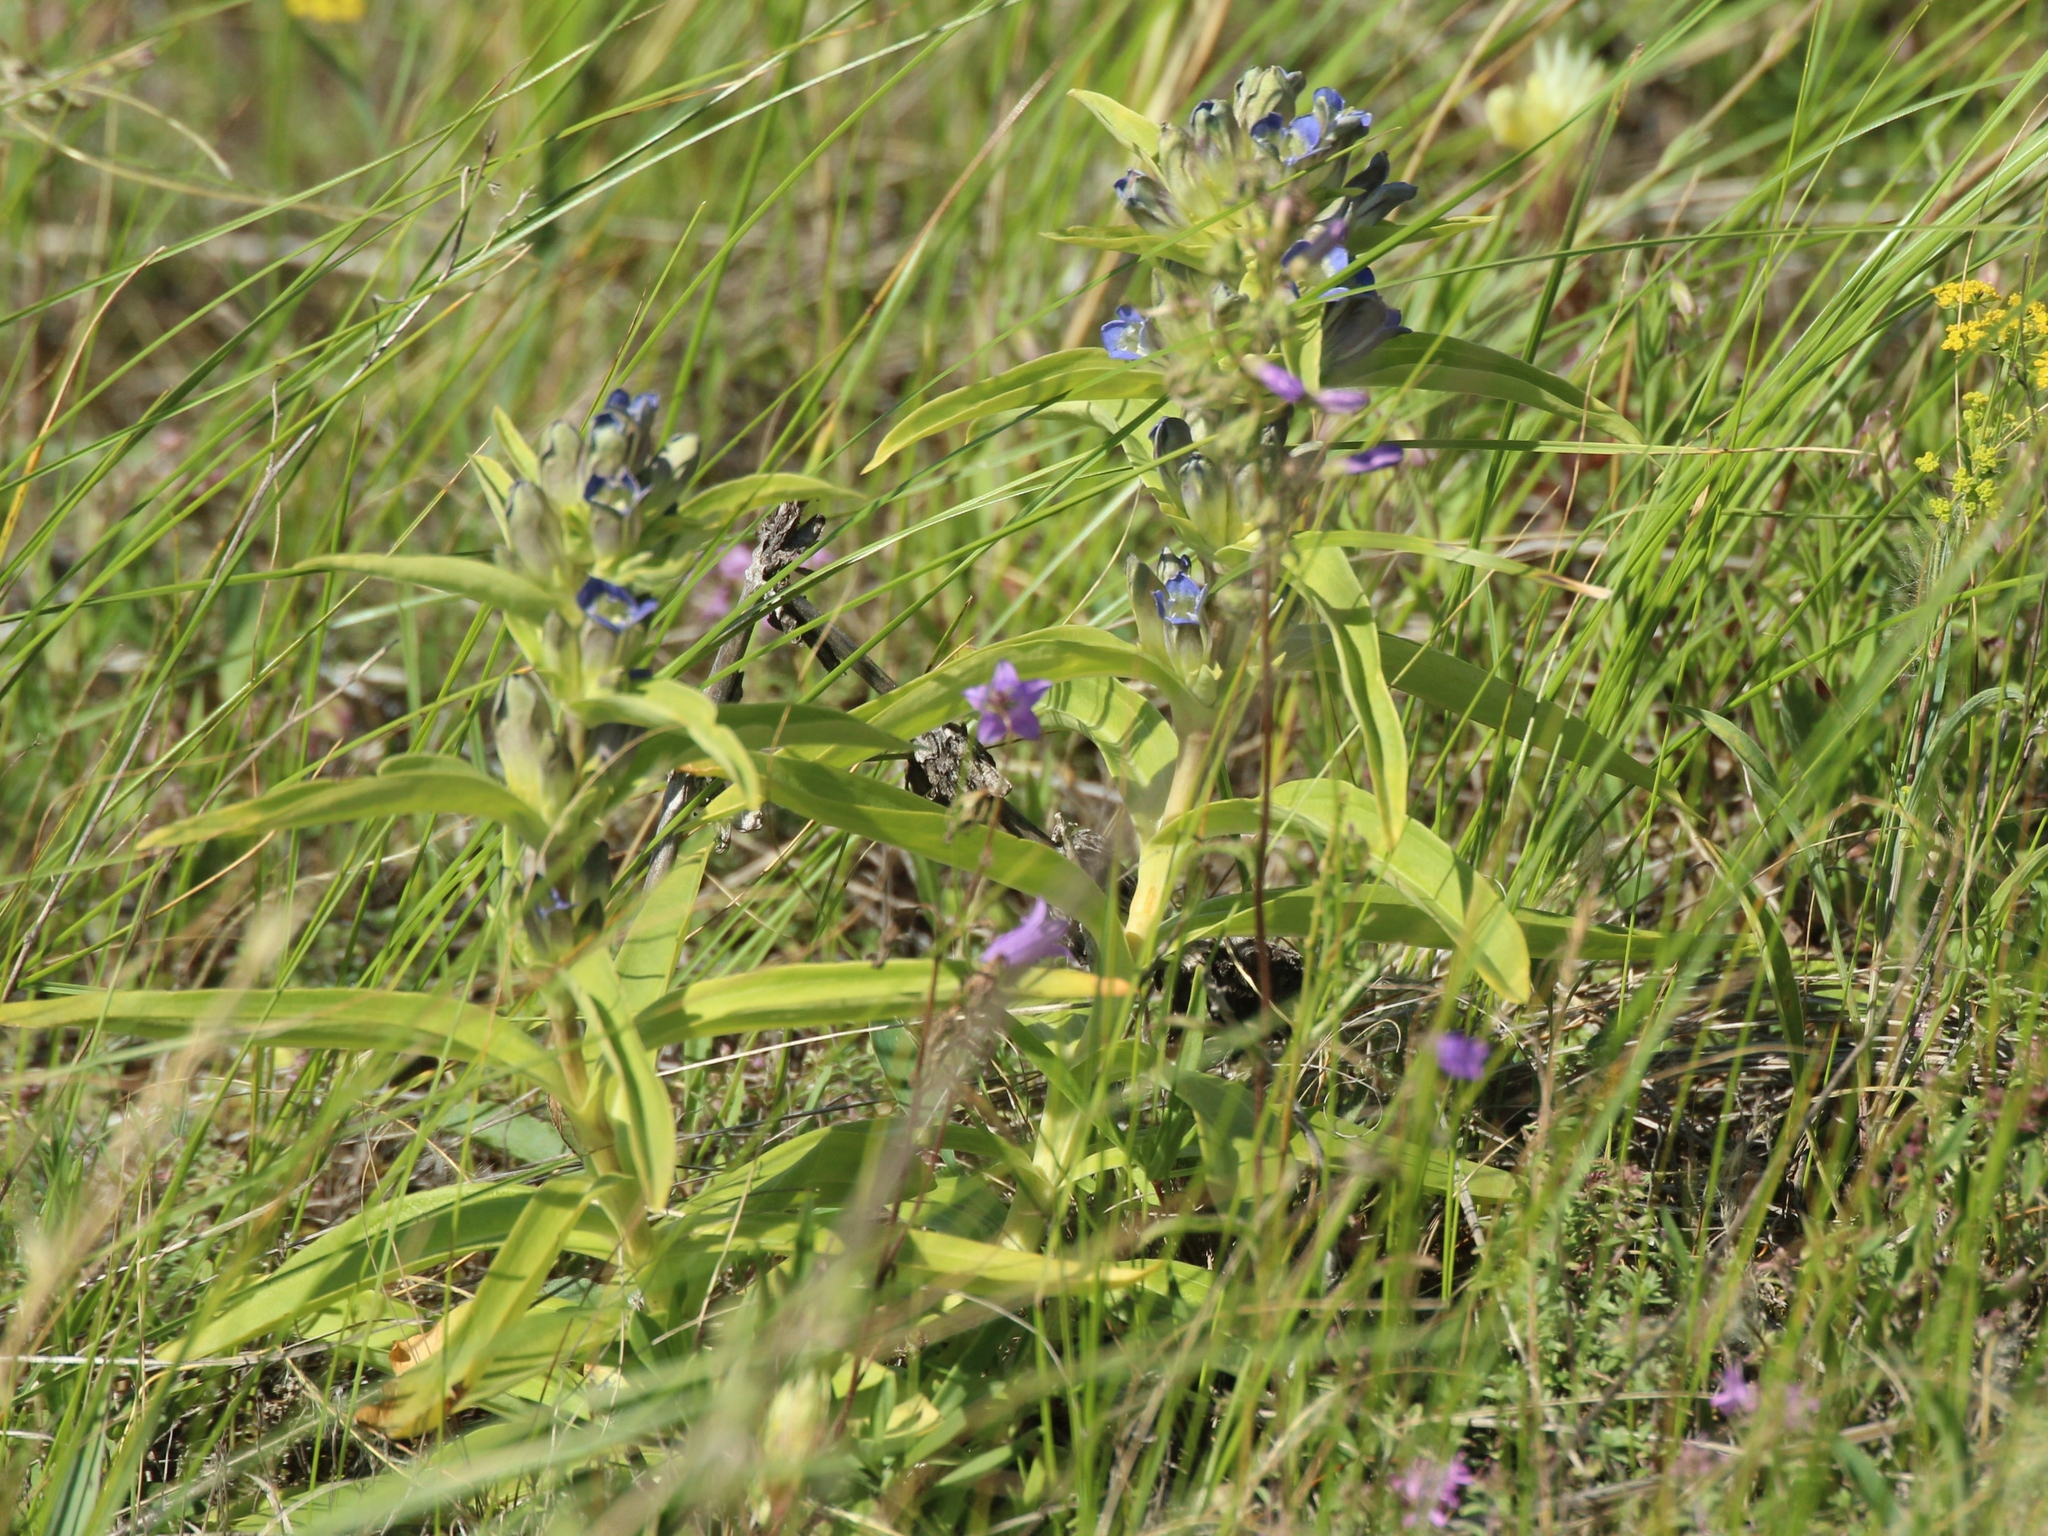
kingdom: Plantae
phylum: Tracheophyta
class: Magnoliopsida
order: Gentianales
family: Gentianaceae
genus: Gentiana
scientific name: Gentiana cruciata
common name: Cross gentian
